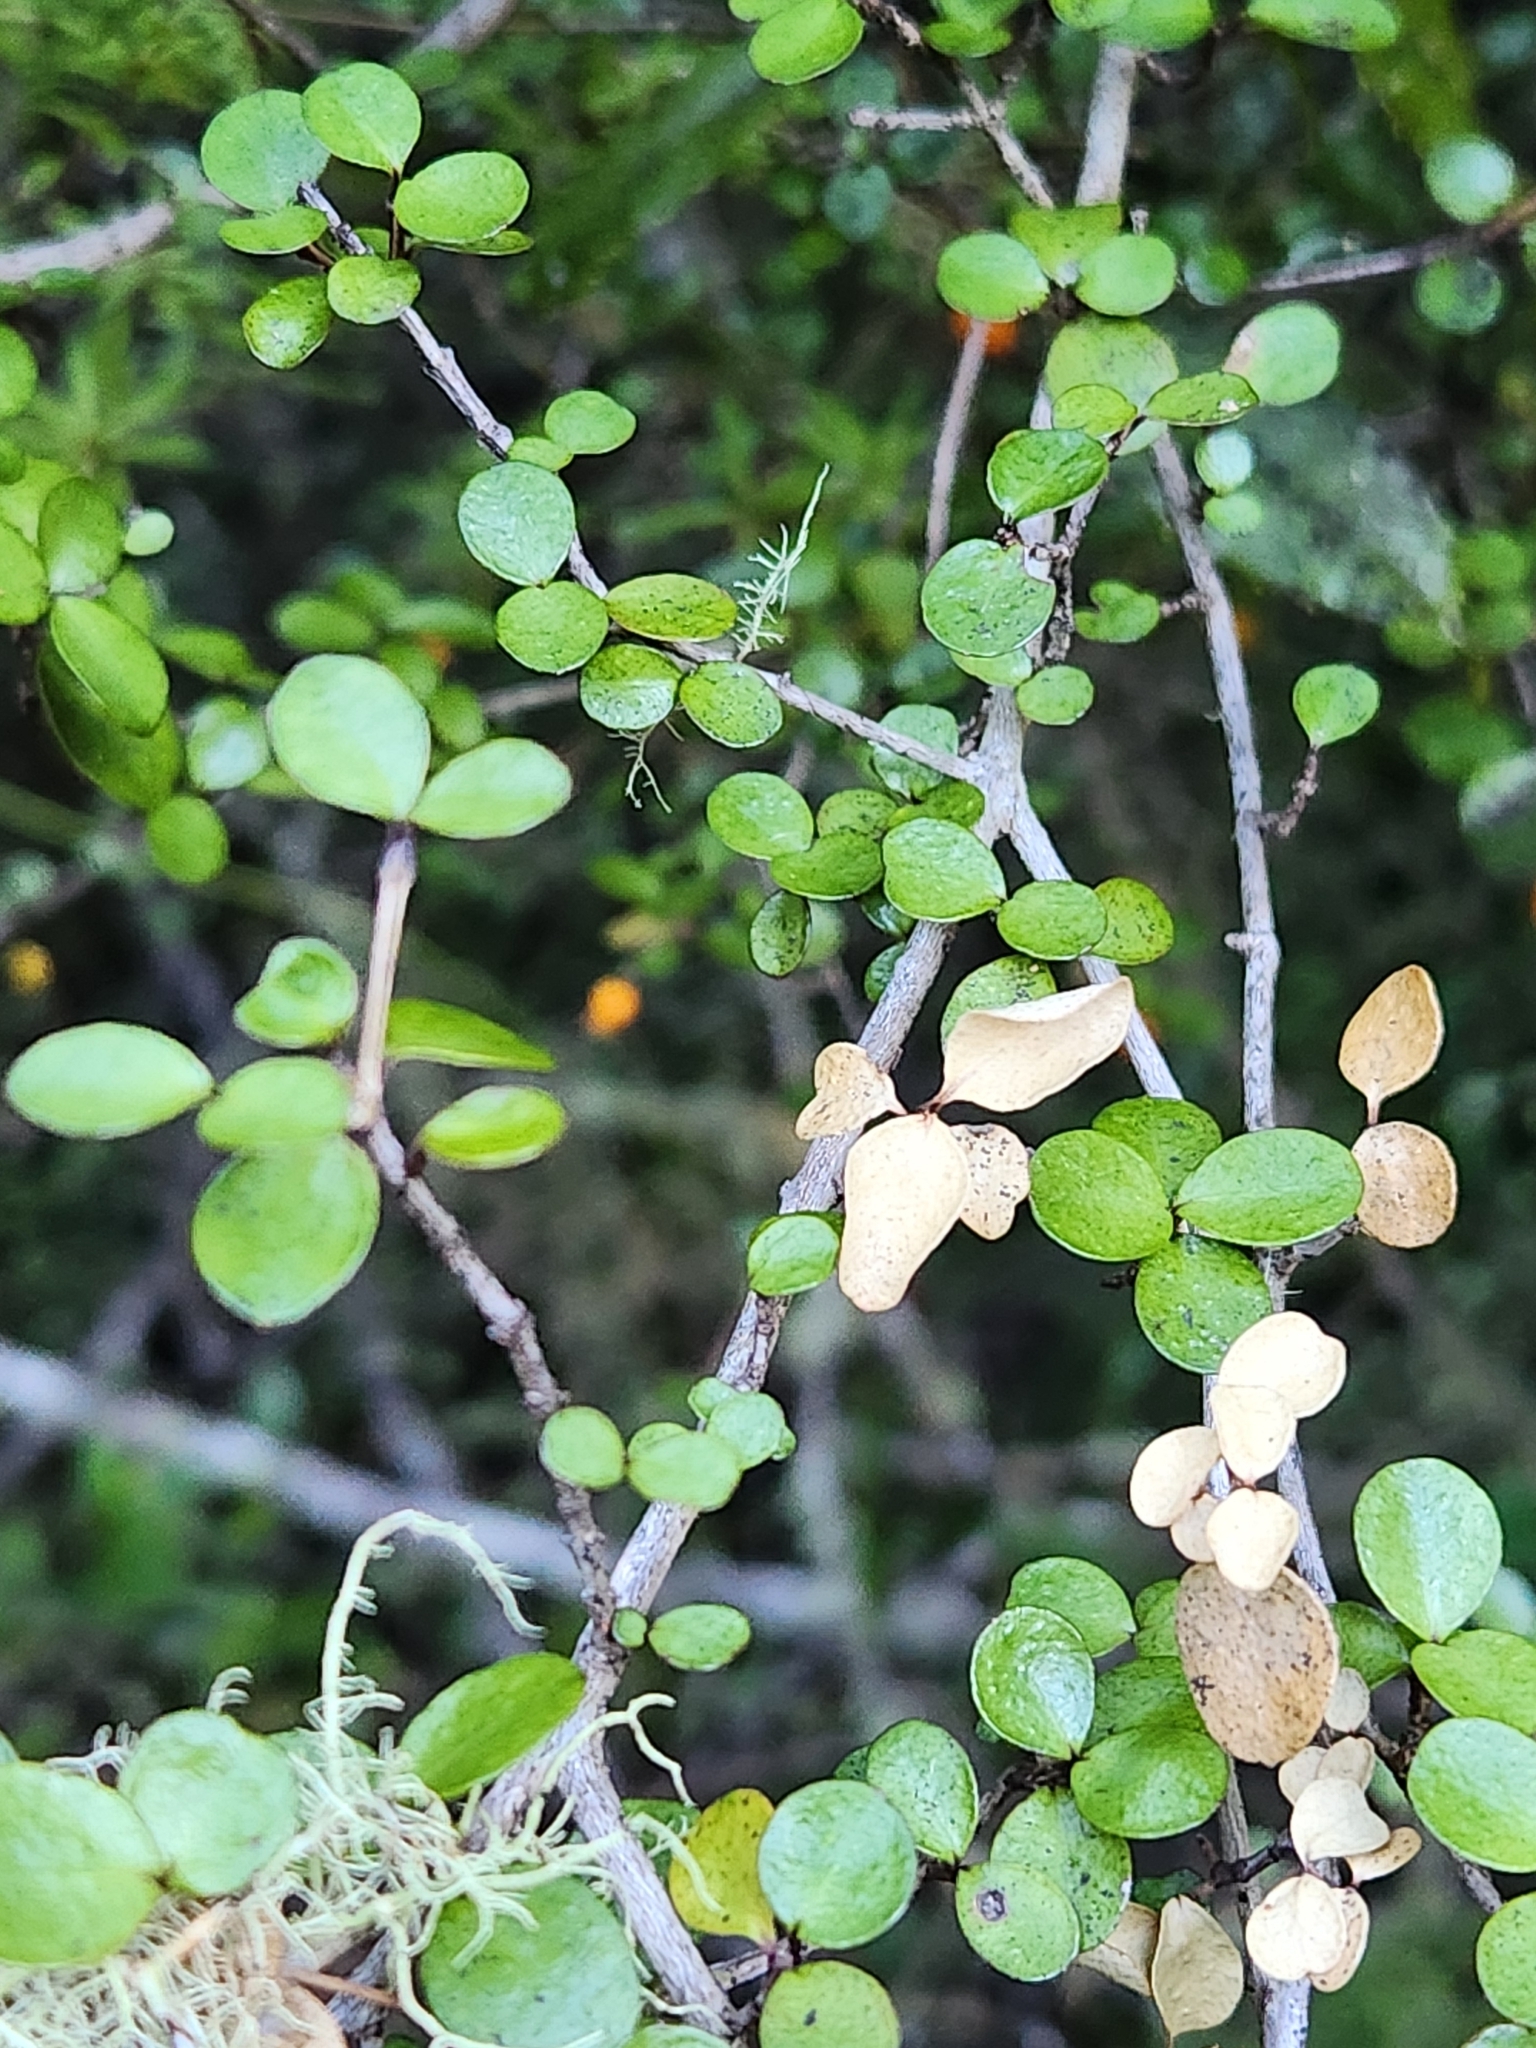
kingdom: Plantae
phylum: Tracheophyta
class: Magnoliopsida
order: Myrtales
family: Myrtaceae
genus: Neomyrtus
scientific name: Neomyrtus pedunculata
